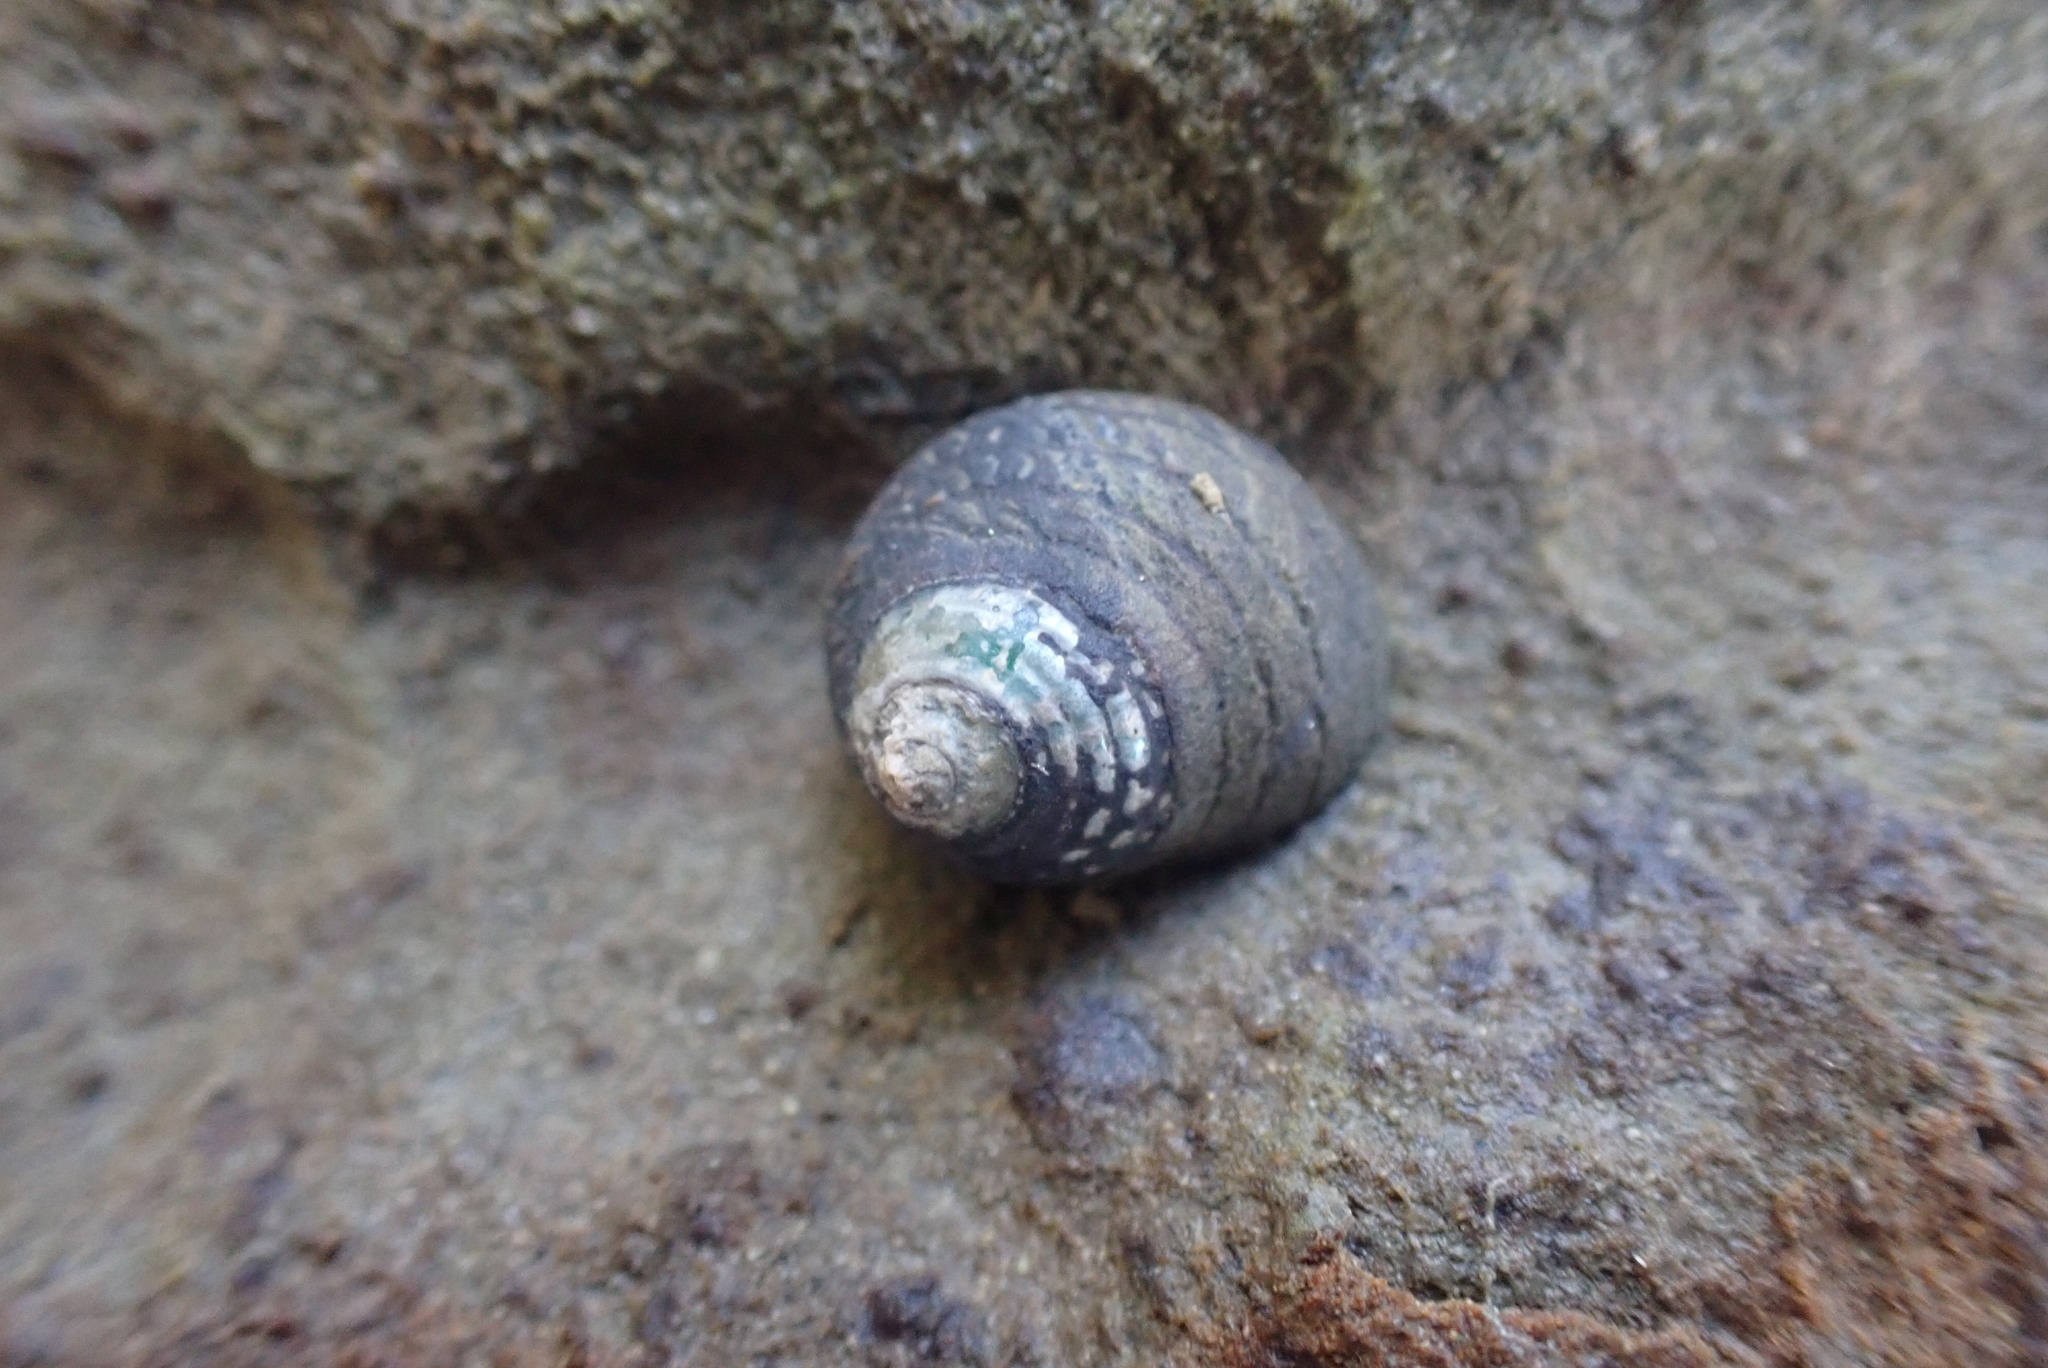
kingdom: Animalia
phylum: Mollusca
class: Gastropoda
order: Trochida
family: Trochidae
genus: Diloma
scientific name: Diloma aethiops
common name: Scorched monodont
